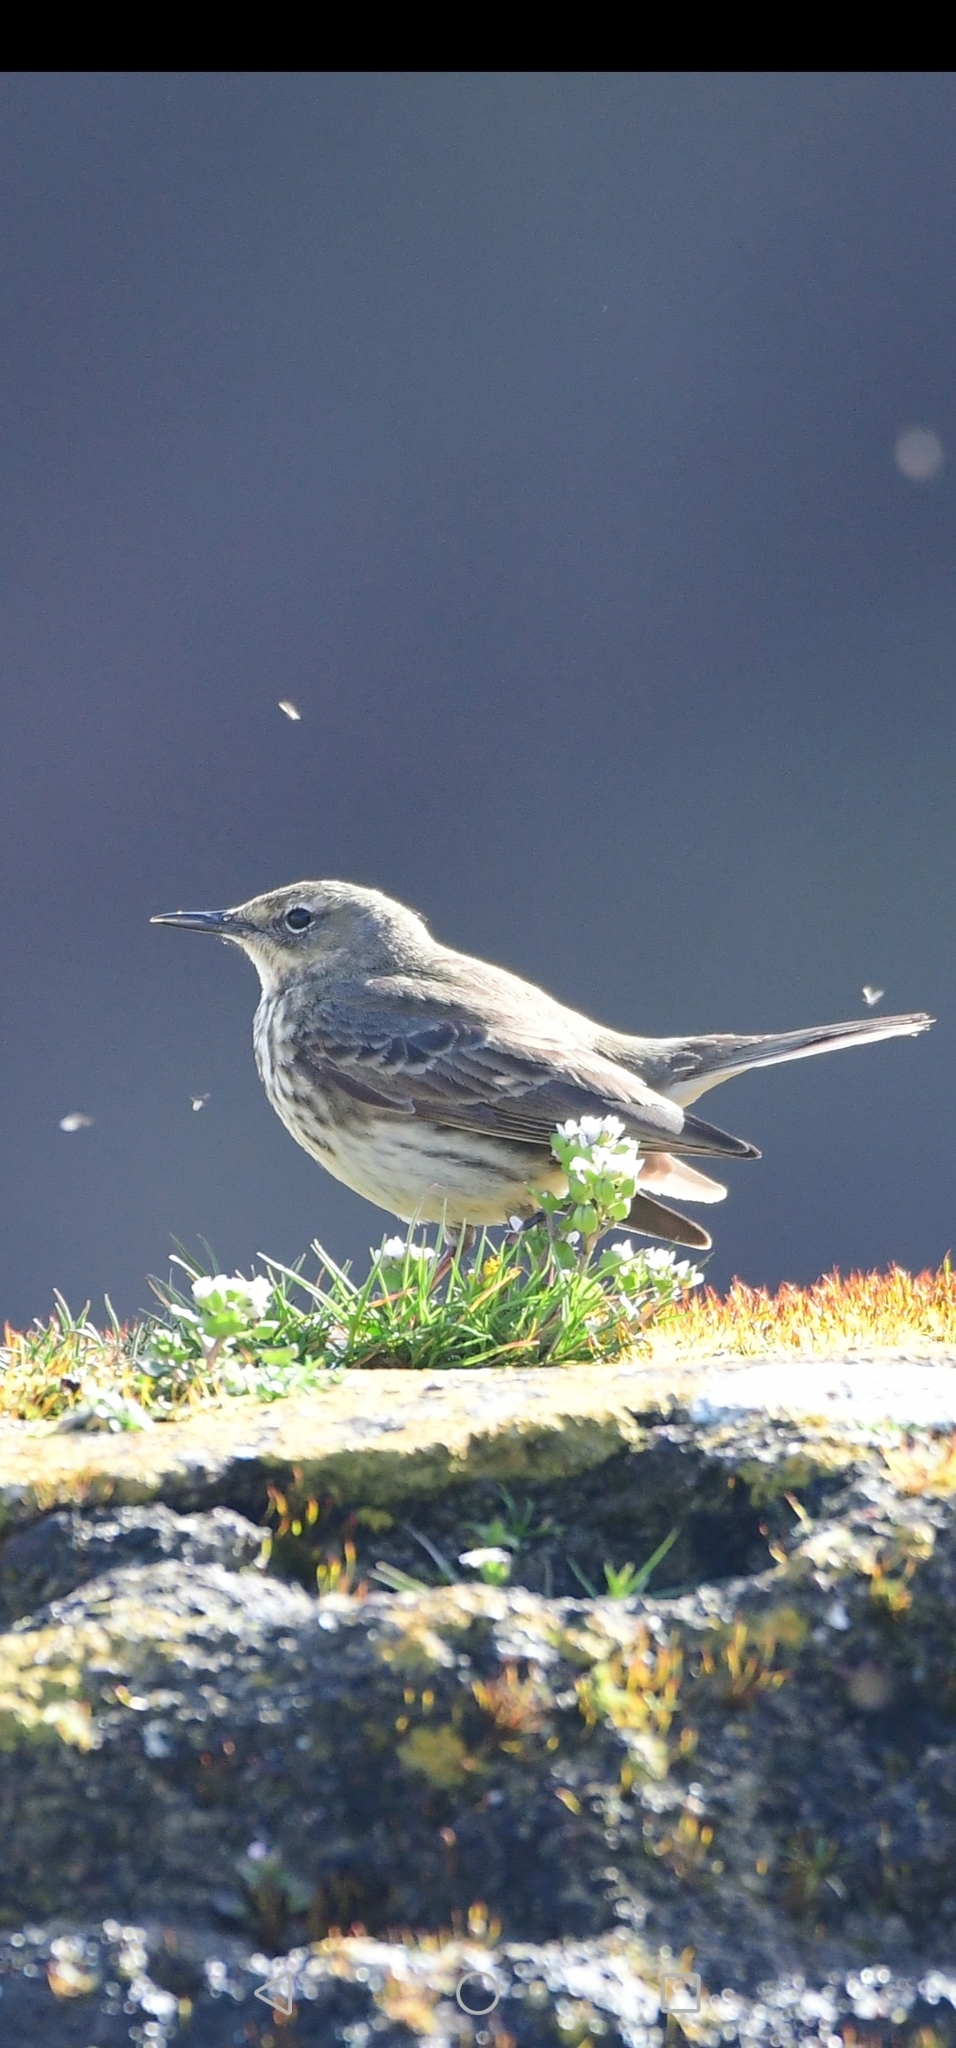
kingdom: Animalia
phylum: Chordata
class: Aves
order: Passeriformes
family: Motacillidae
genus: Anthus
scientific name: Anthus petrosus
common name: Eurasian rock pipit
